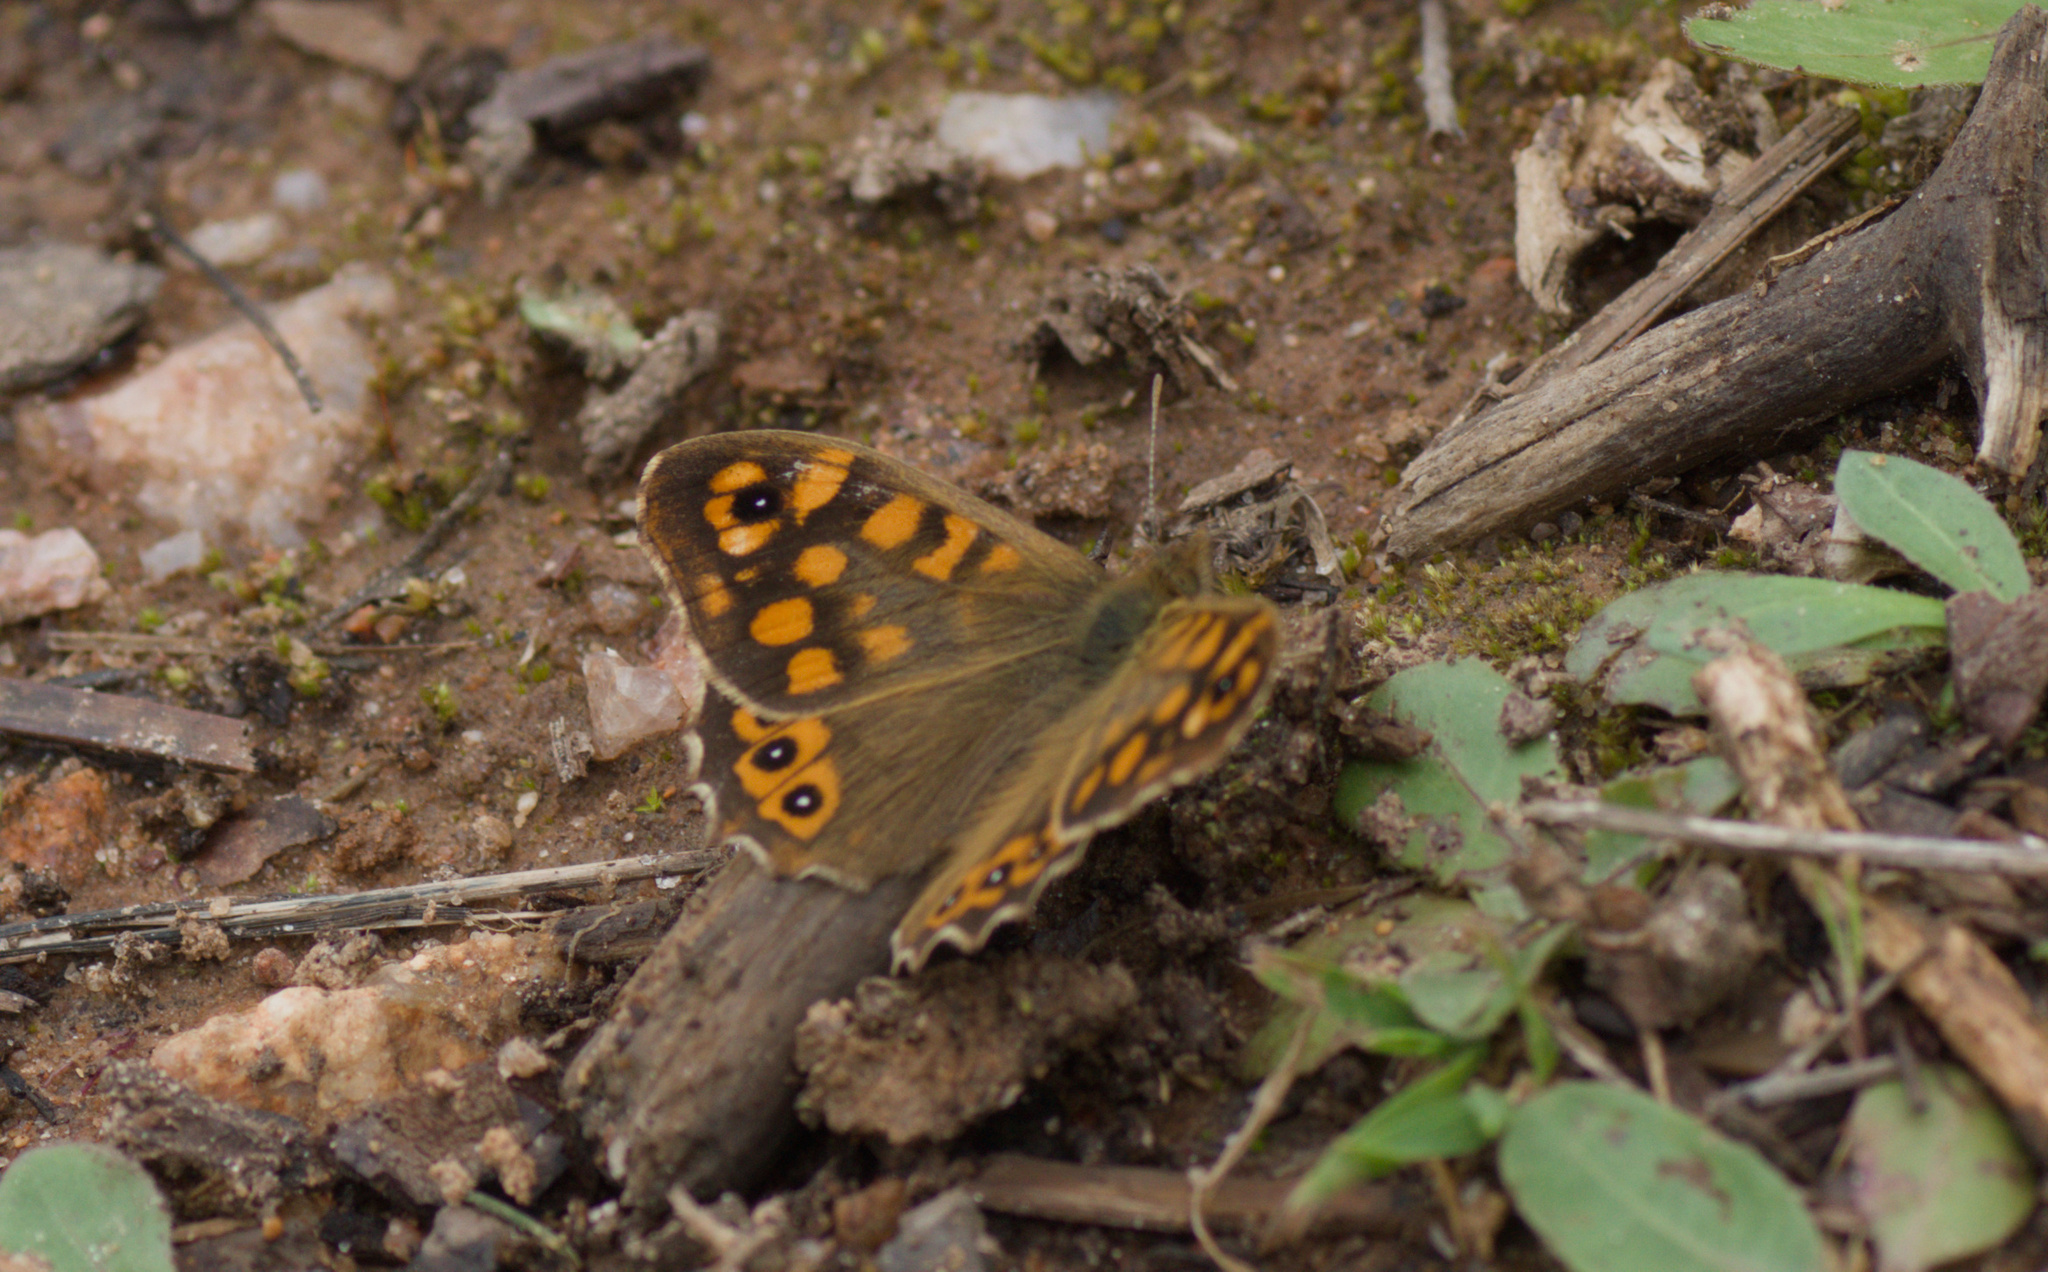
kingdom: Animalia
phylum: Arthropoda
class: Insecta
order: Lepidoptera
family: Nymphalidae
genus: Pararge
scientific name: Pararge aegeria
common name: Speckled wood
